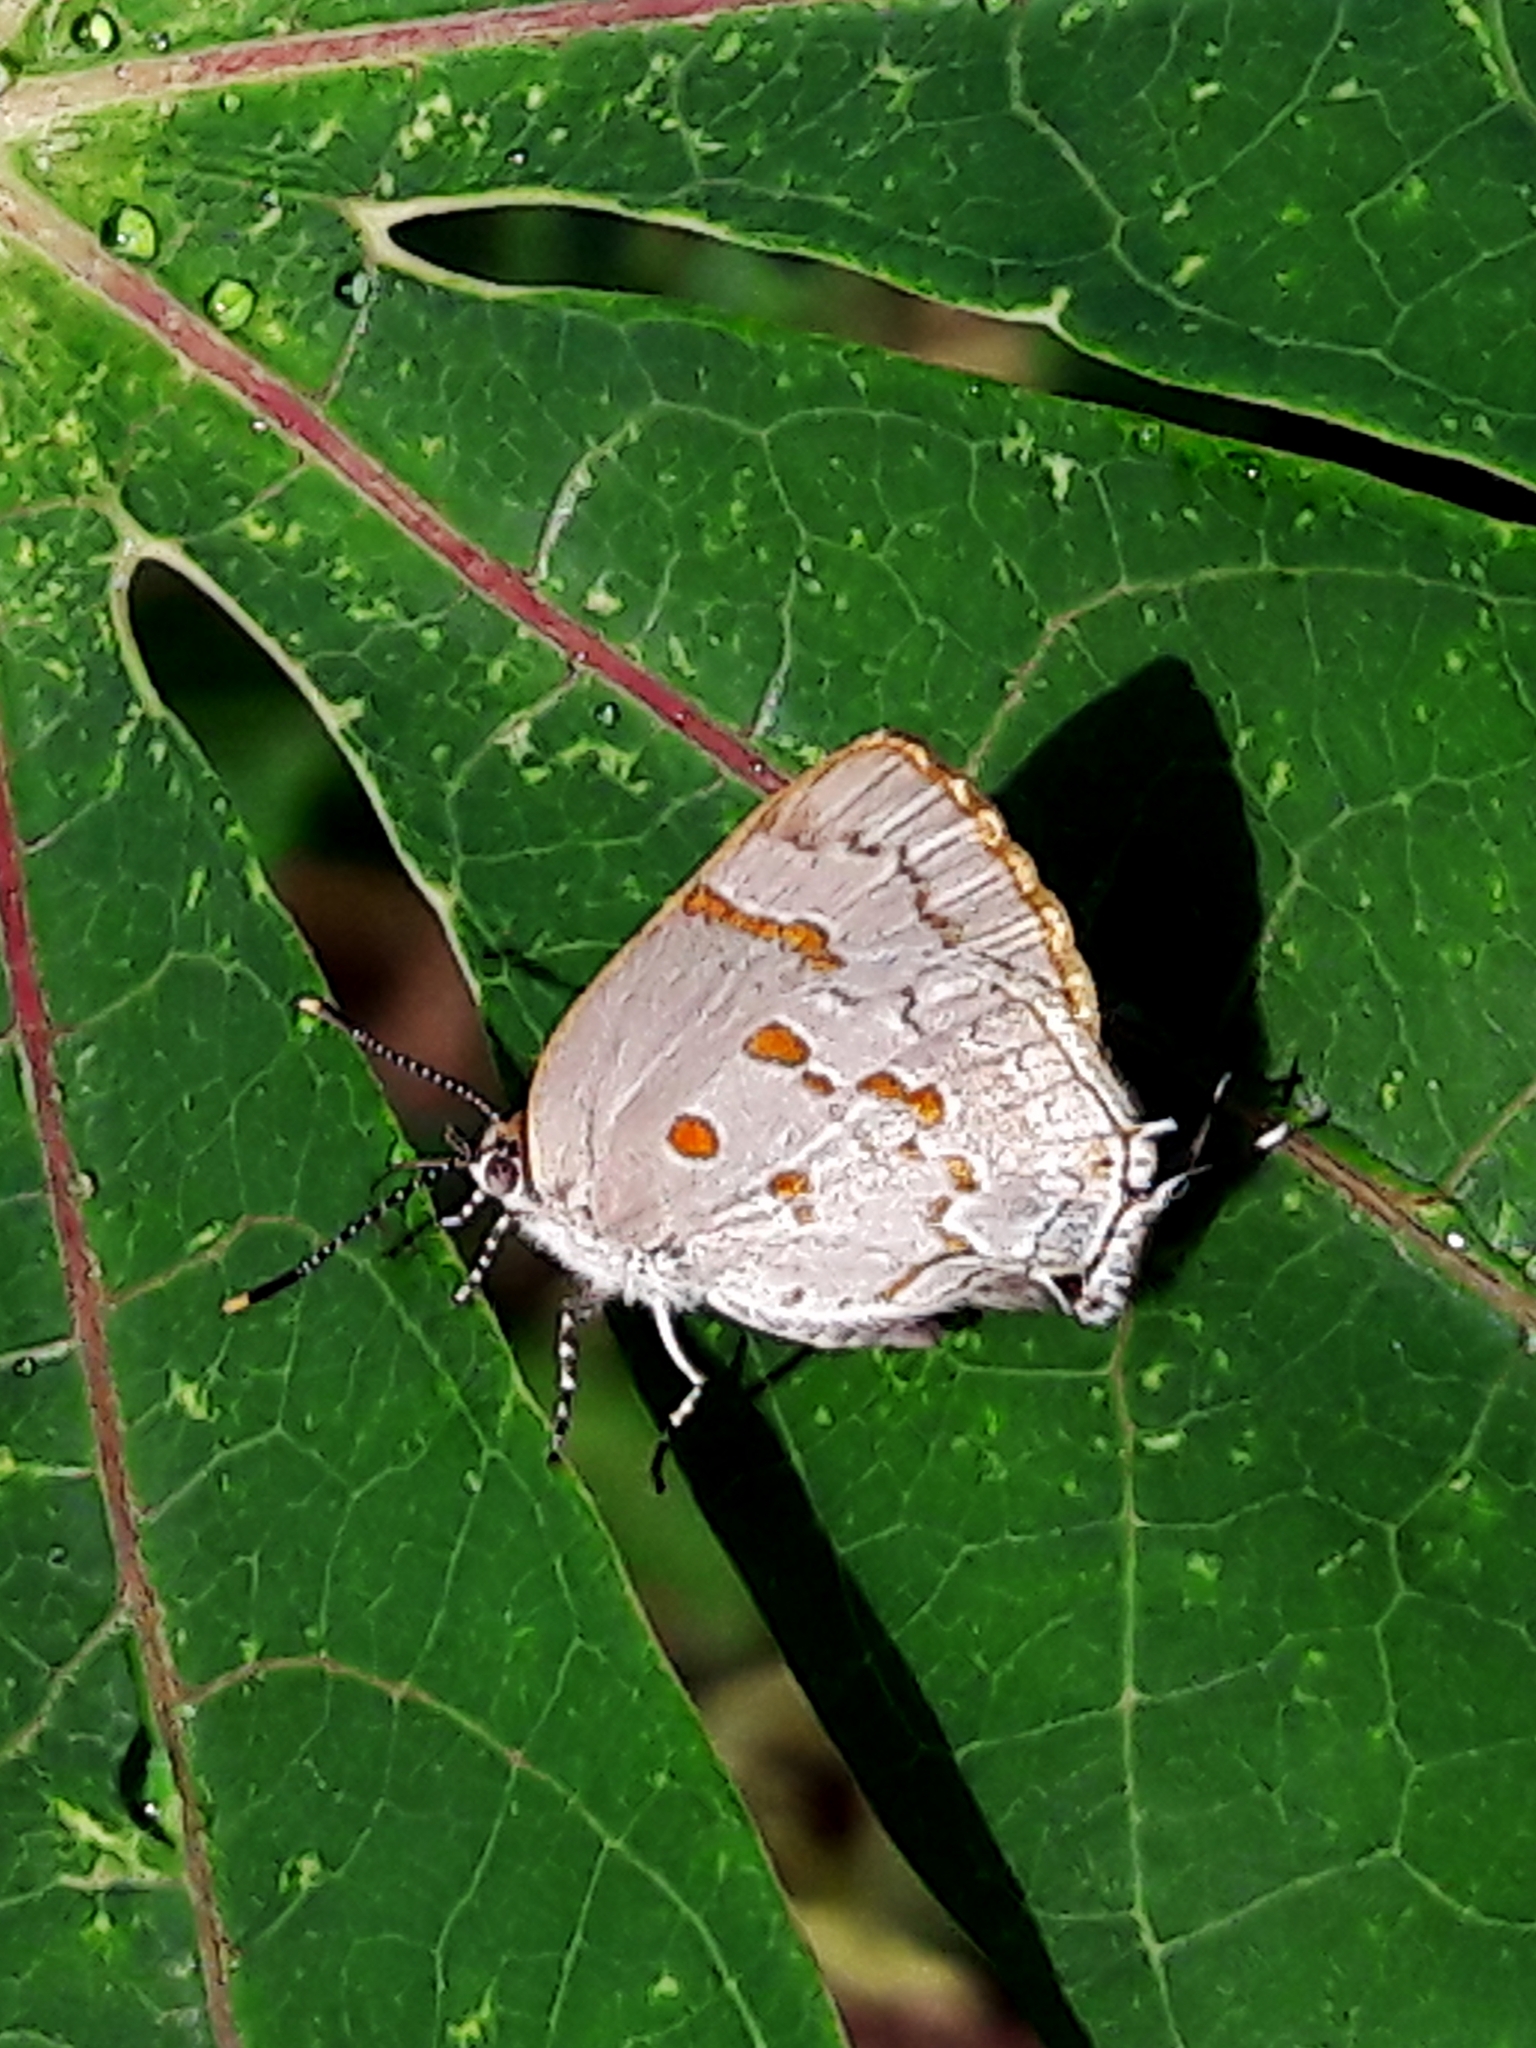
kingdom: Animalia
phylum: Arthropoda
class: Insecta
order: Lepidoptera
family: Lycaenidae
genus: Tmolus
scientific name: Tmolus echion
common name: Red-spotted hairstreak
